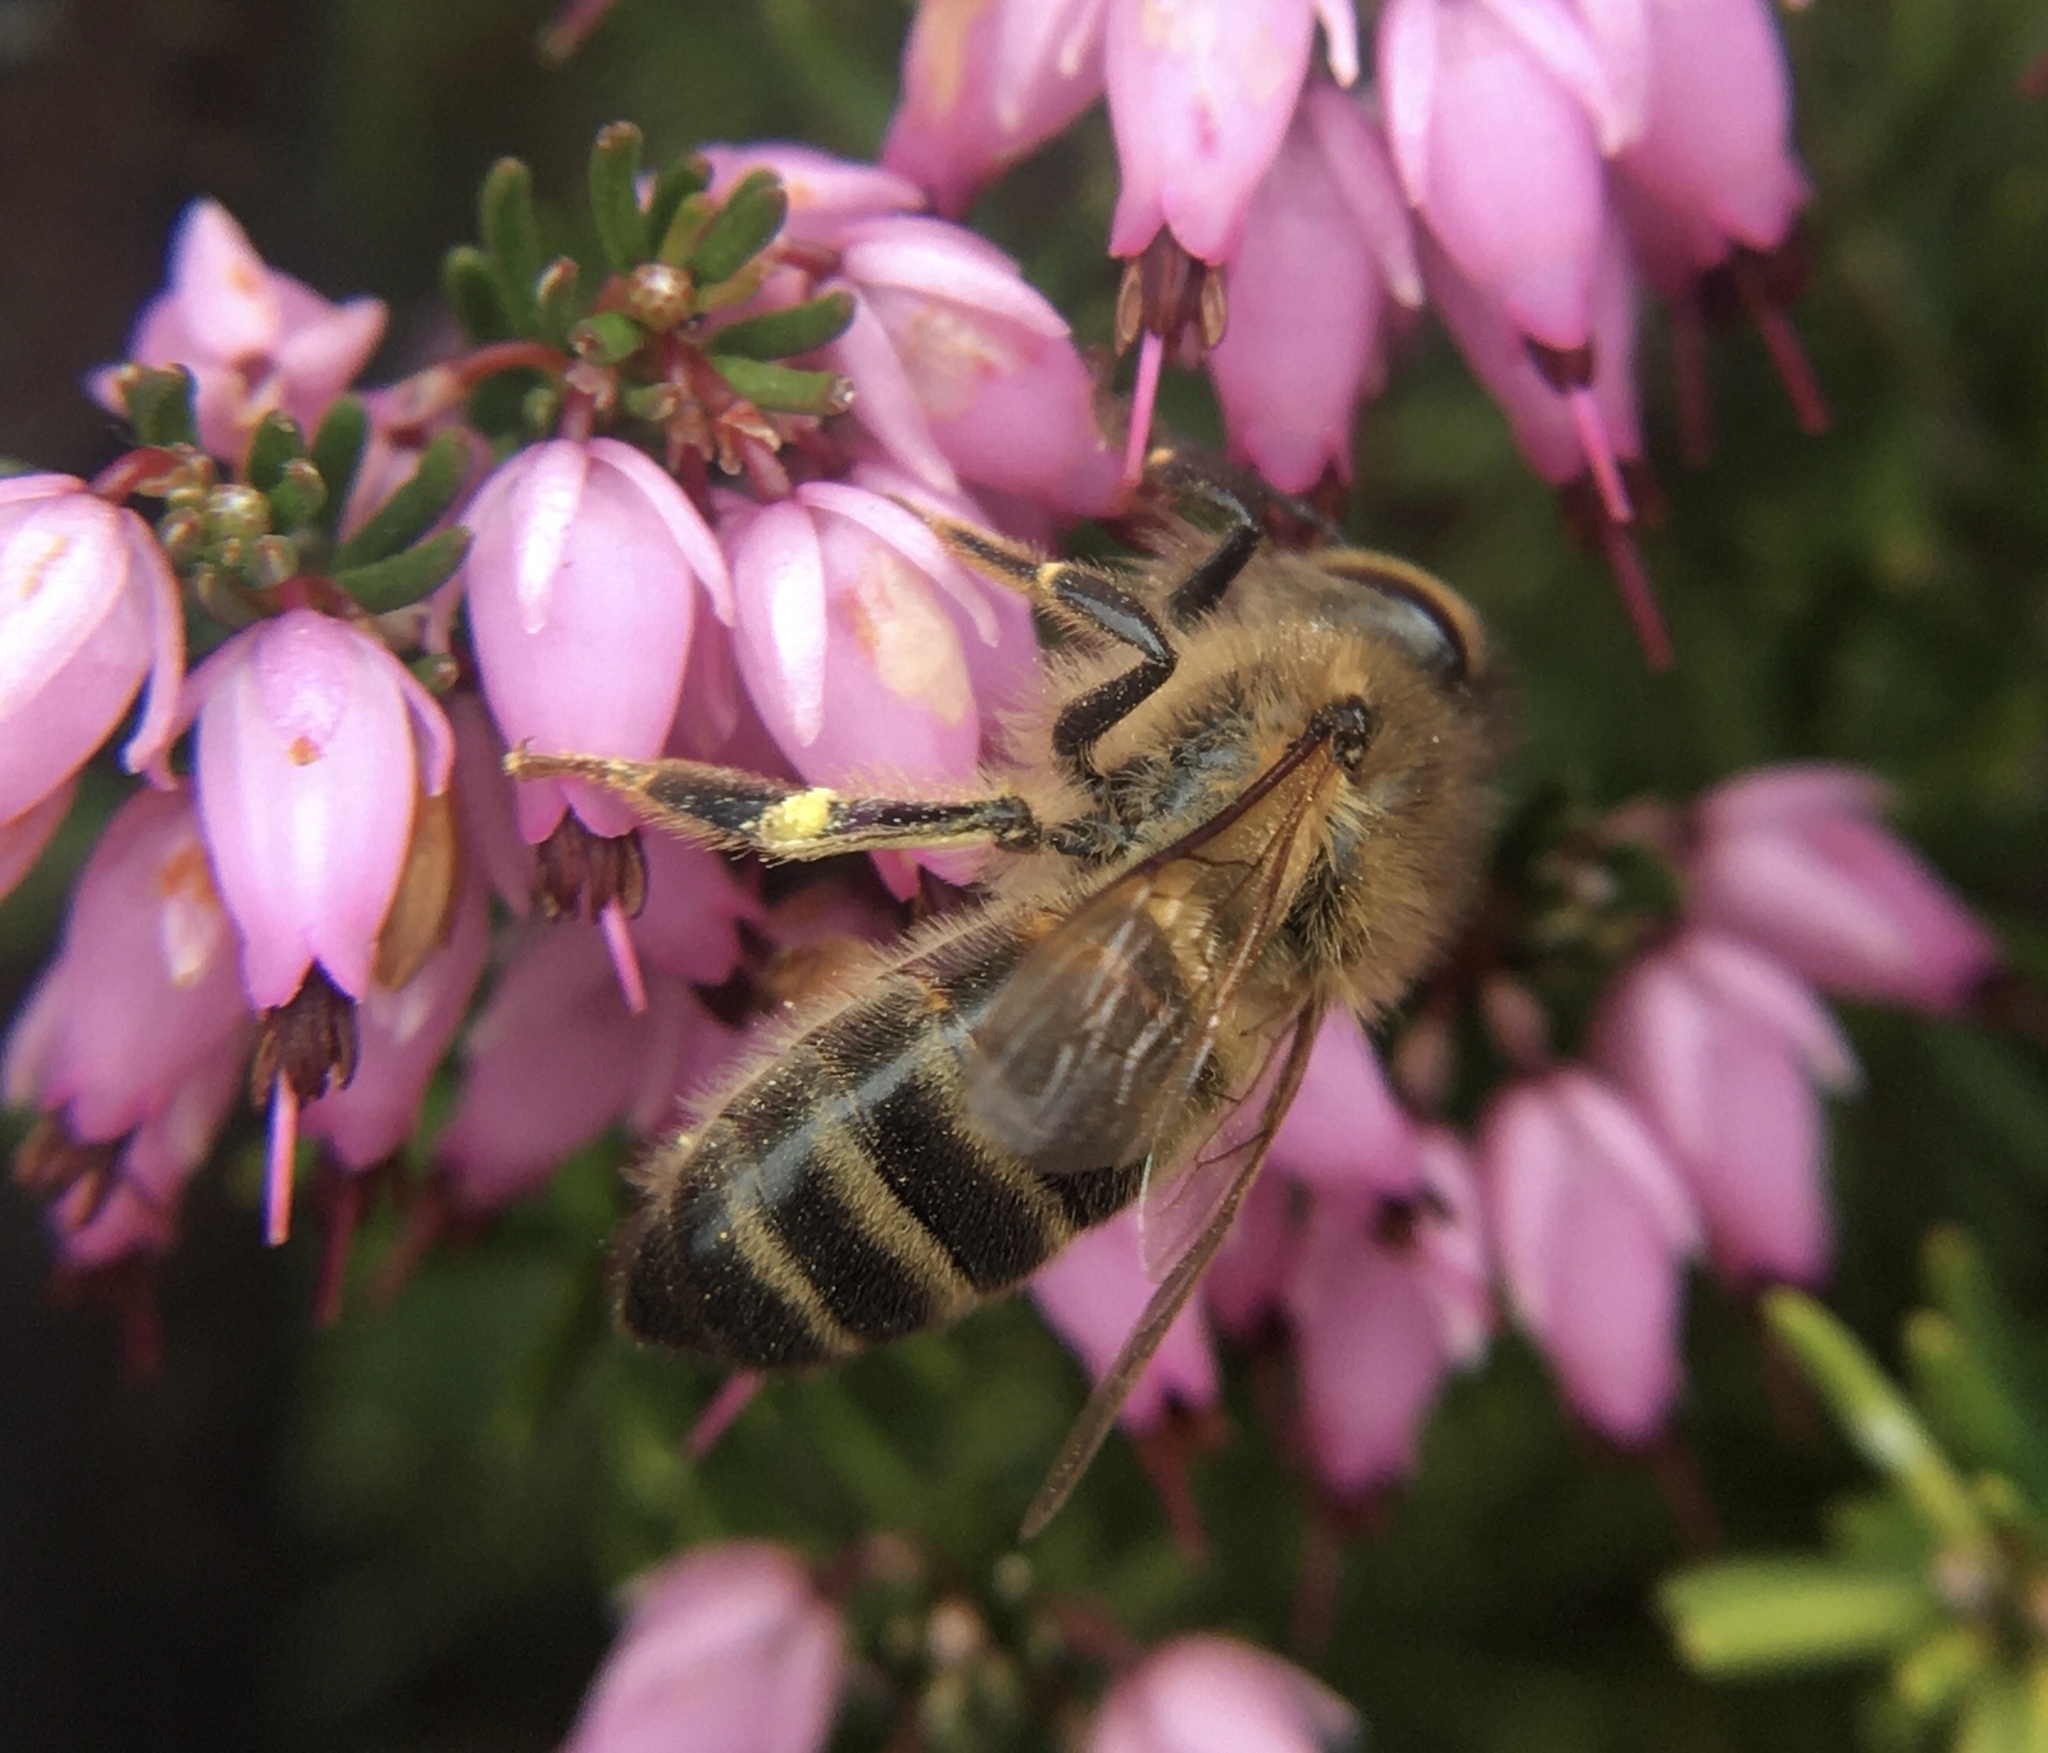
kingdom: Animalia
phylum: Arthropoda
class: Insecta
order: Hymenoptera
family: Apidae
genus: Apis
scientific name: Apis mellifera
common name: Honey bee
